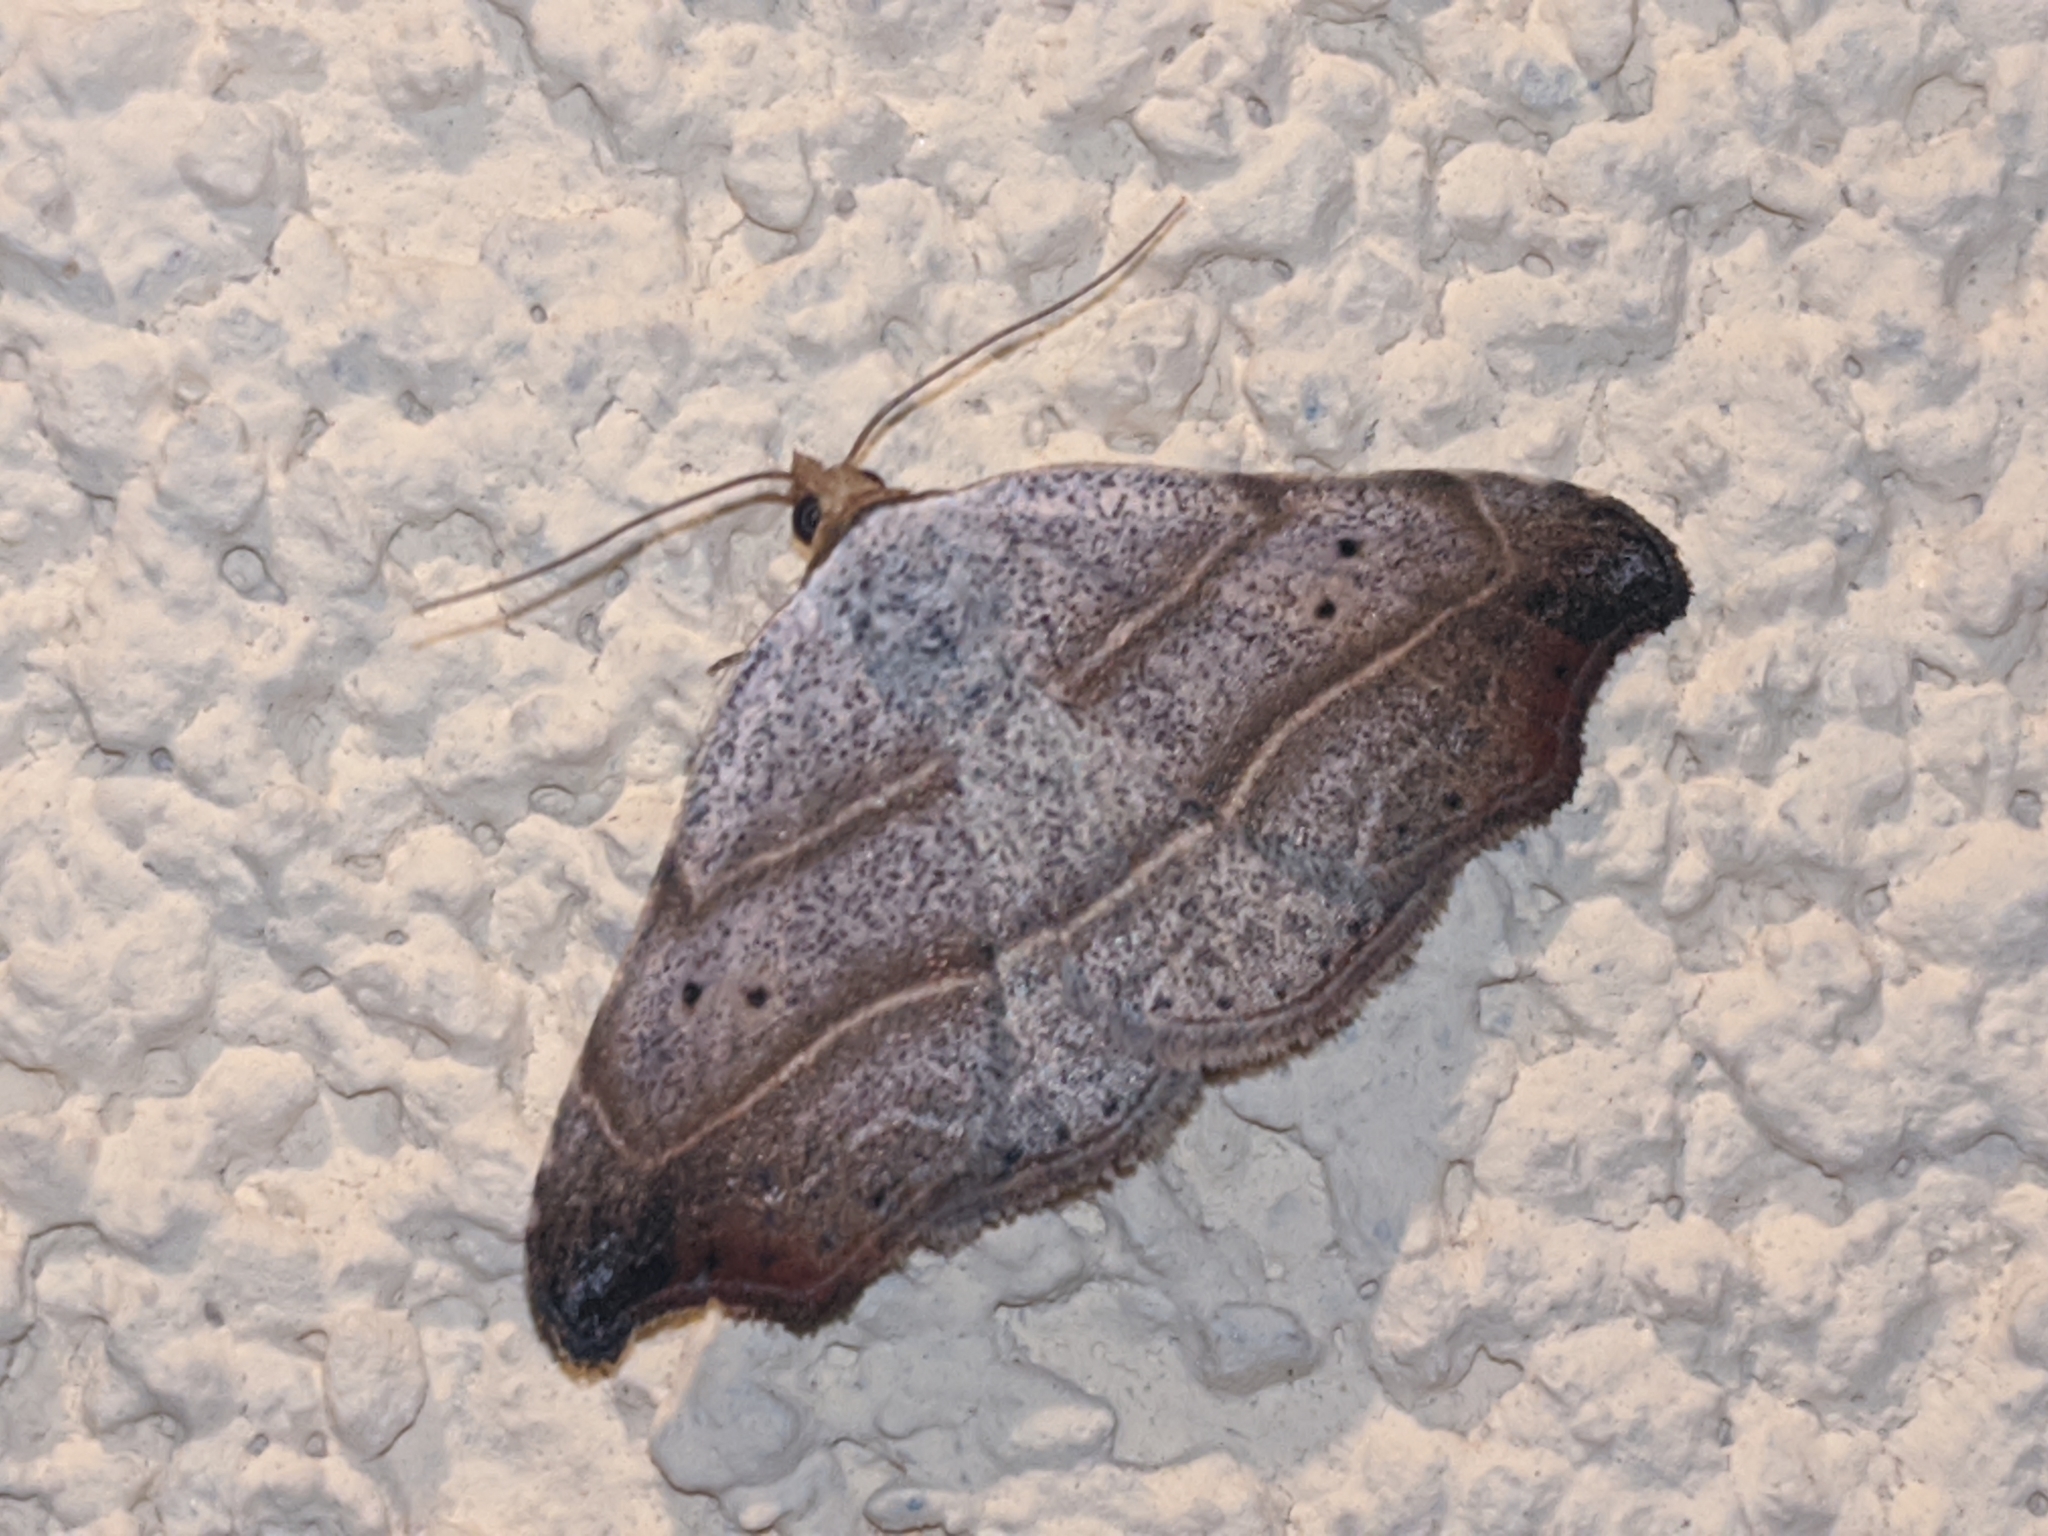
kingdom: Animalia
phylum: Arthropoda
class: Insecta
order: Lepidoptera
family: Erebidae
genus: Laspeyria
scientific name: Laspeyria flexula
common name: Beautiful hook-tip
